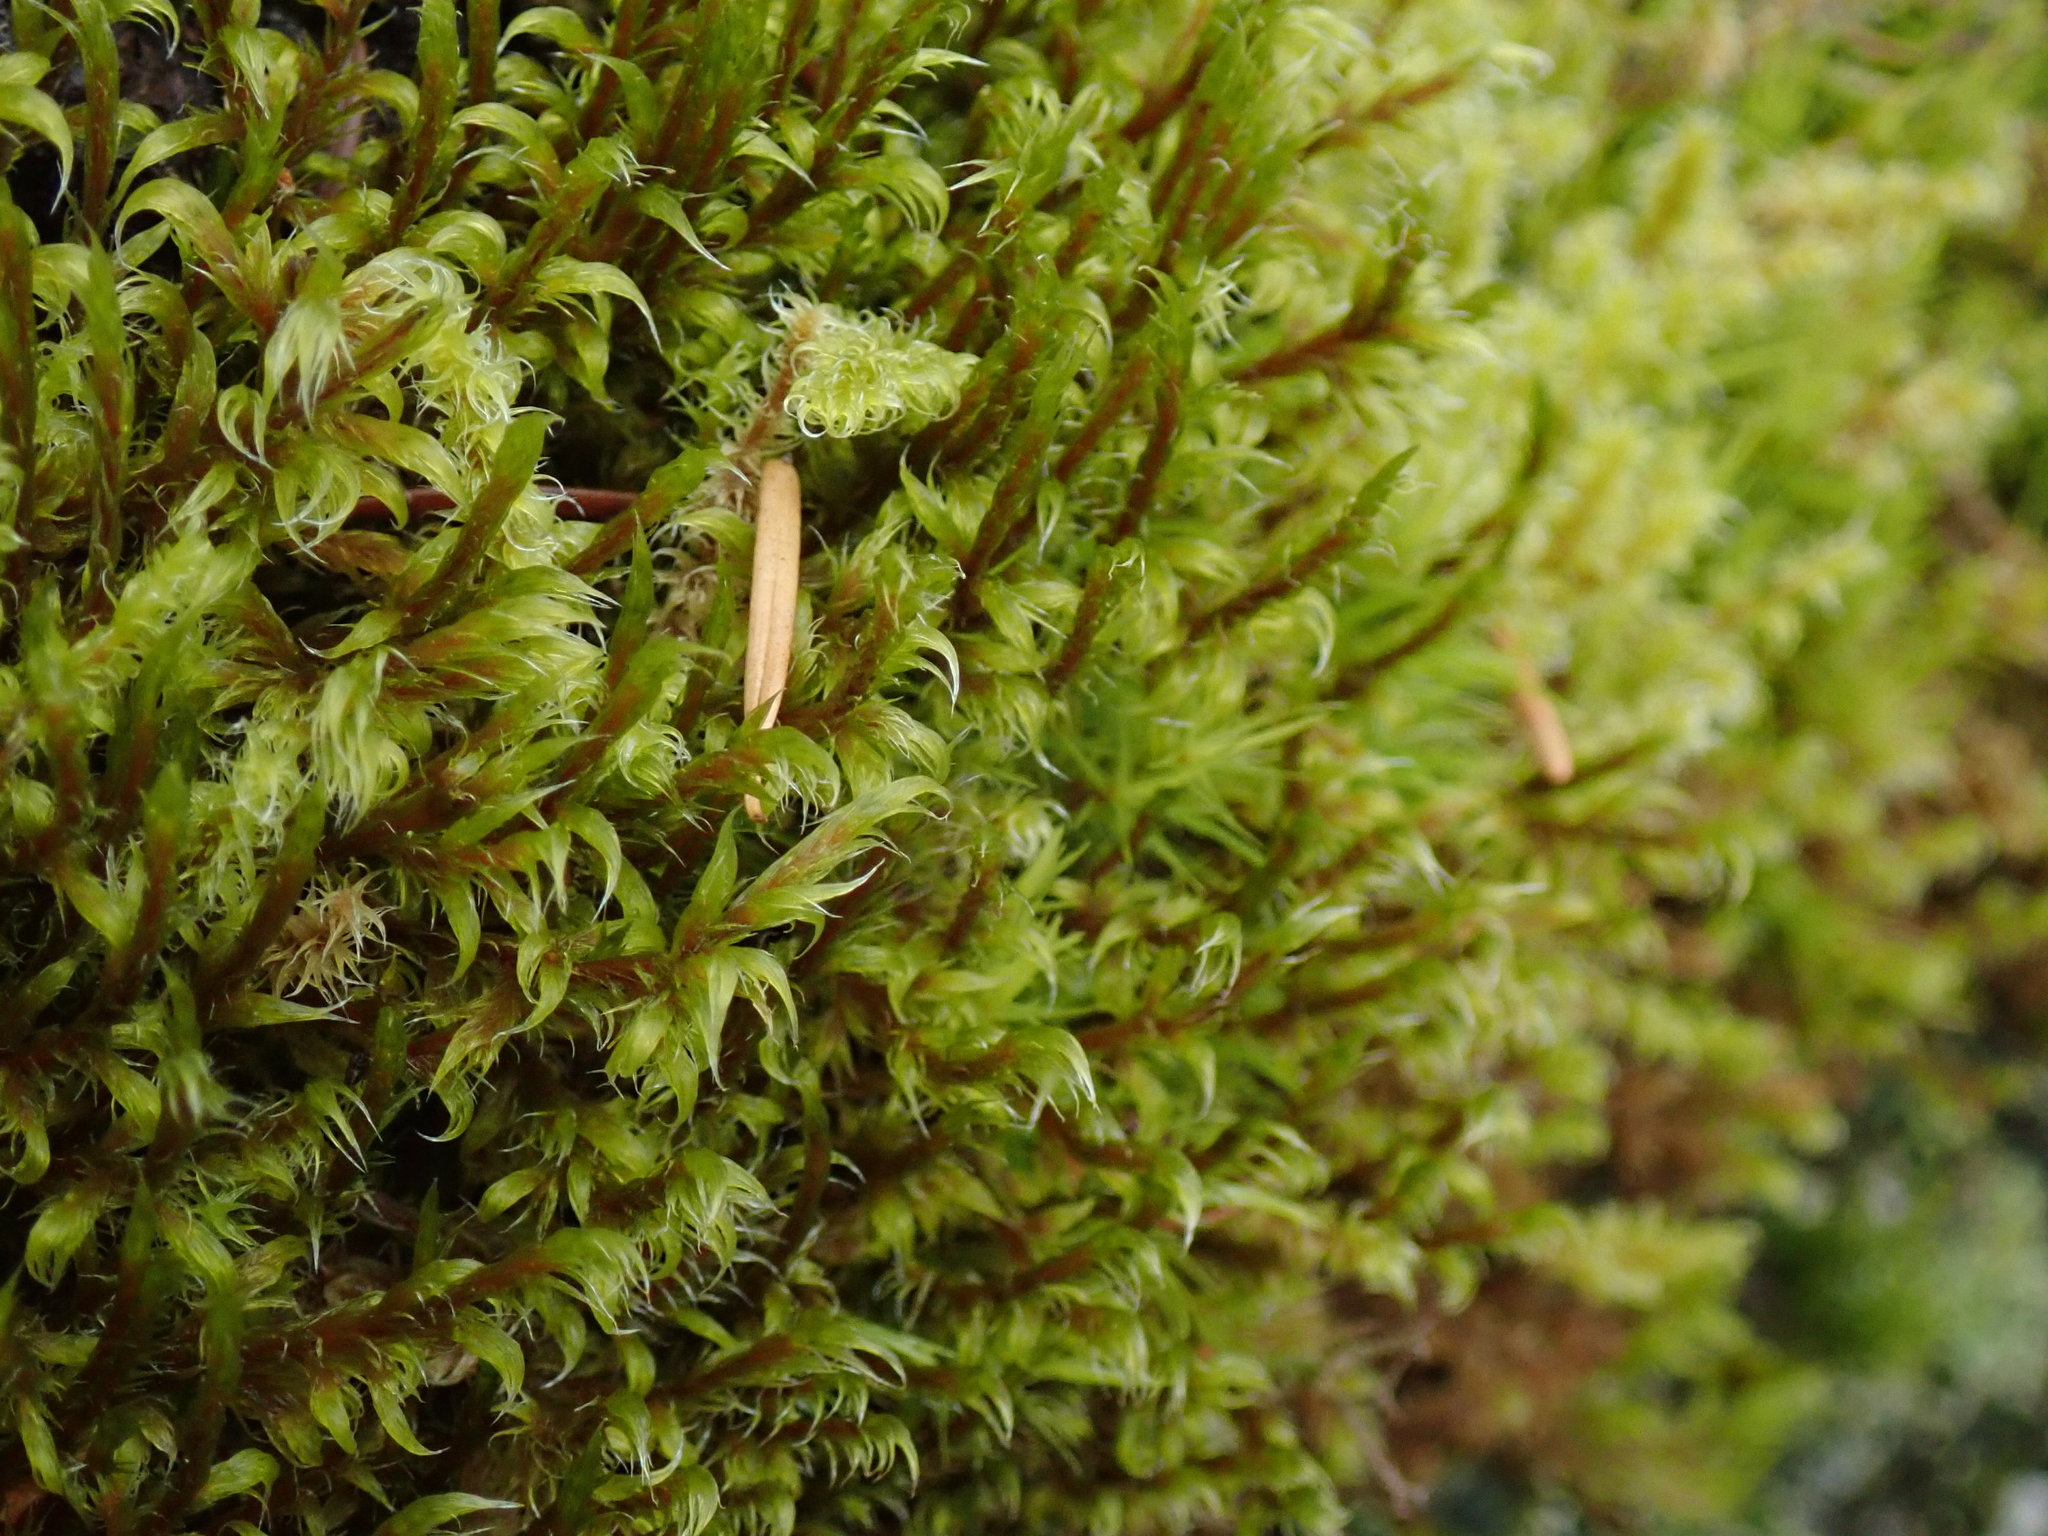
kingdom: Plantae
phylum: Bryophyta
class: Bryopsida
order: Grimmiales
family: Grimmiaceae
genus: Racomitrium
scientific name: Racomitrium lanuginosum
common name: Hoary rock moss
